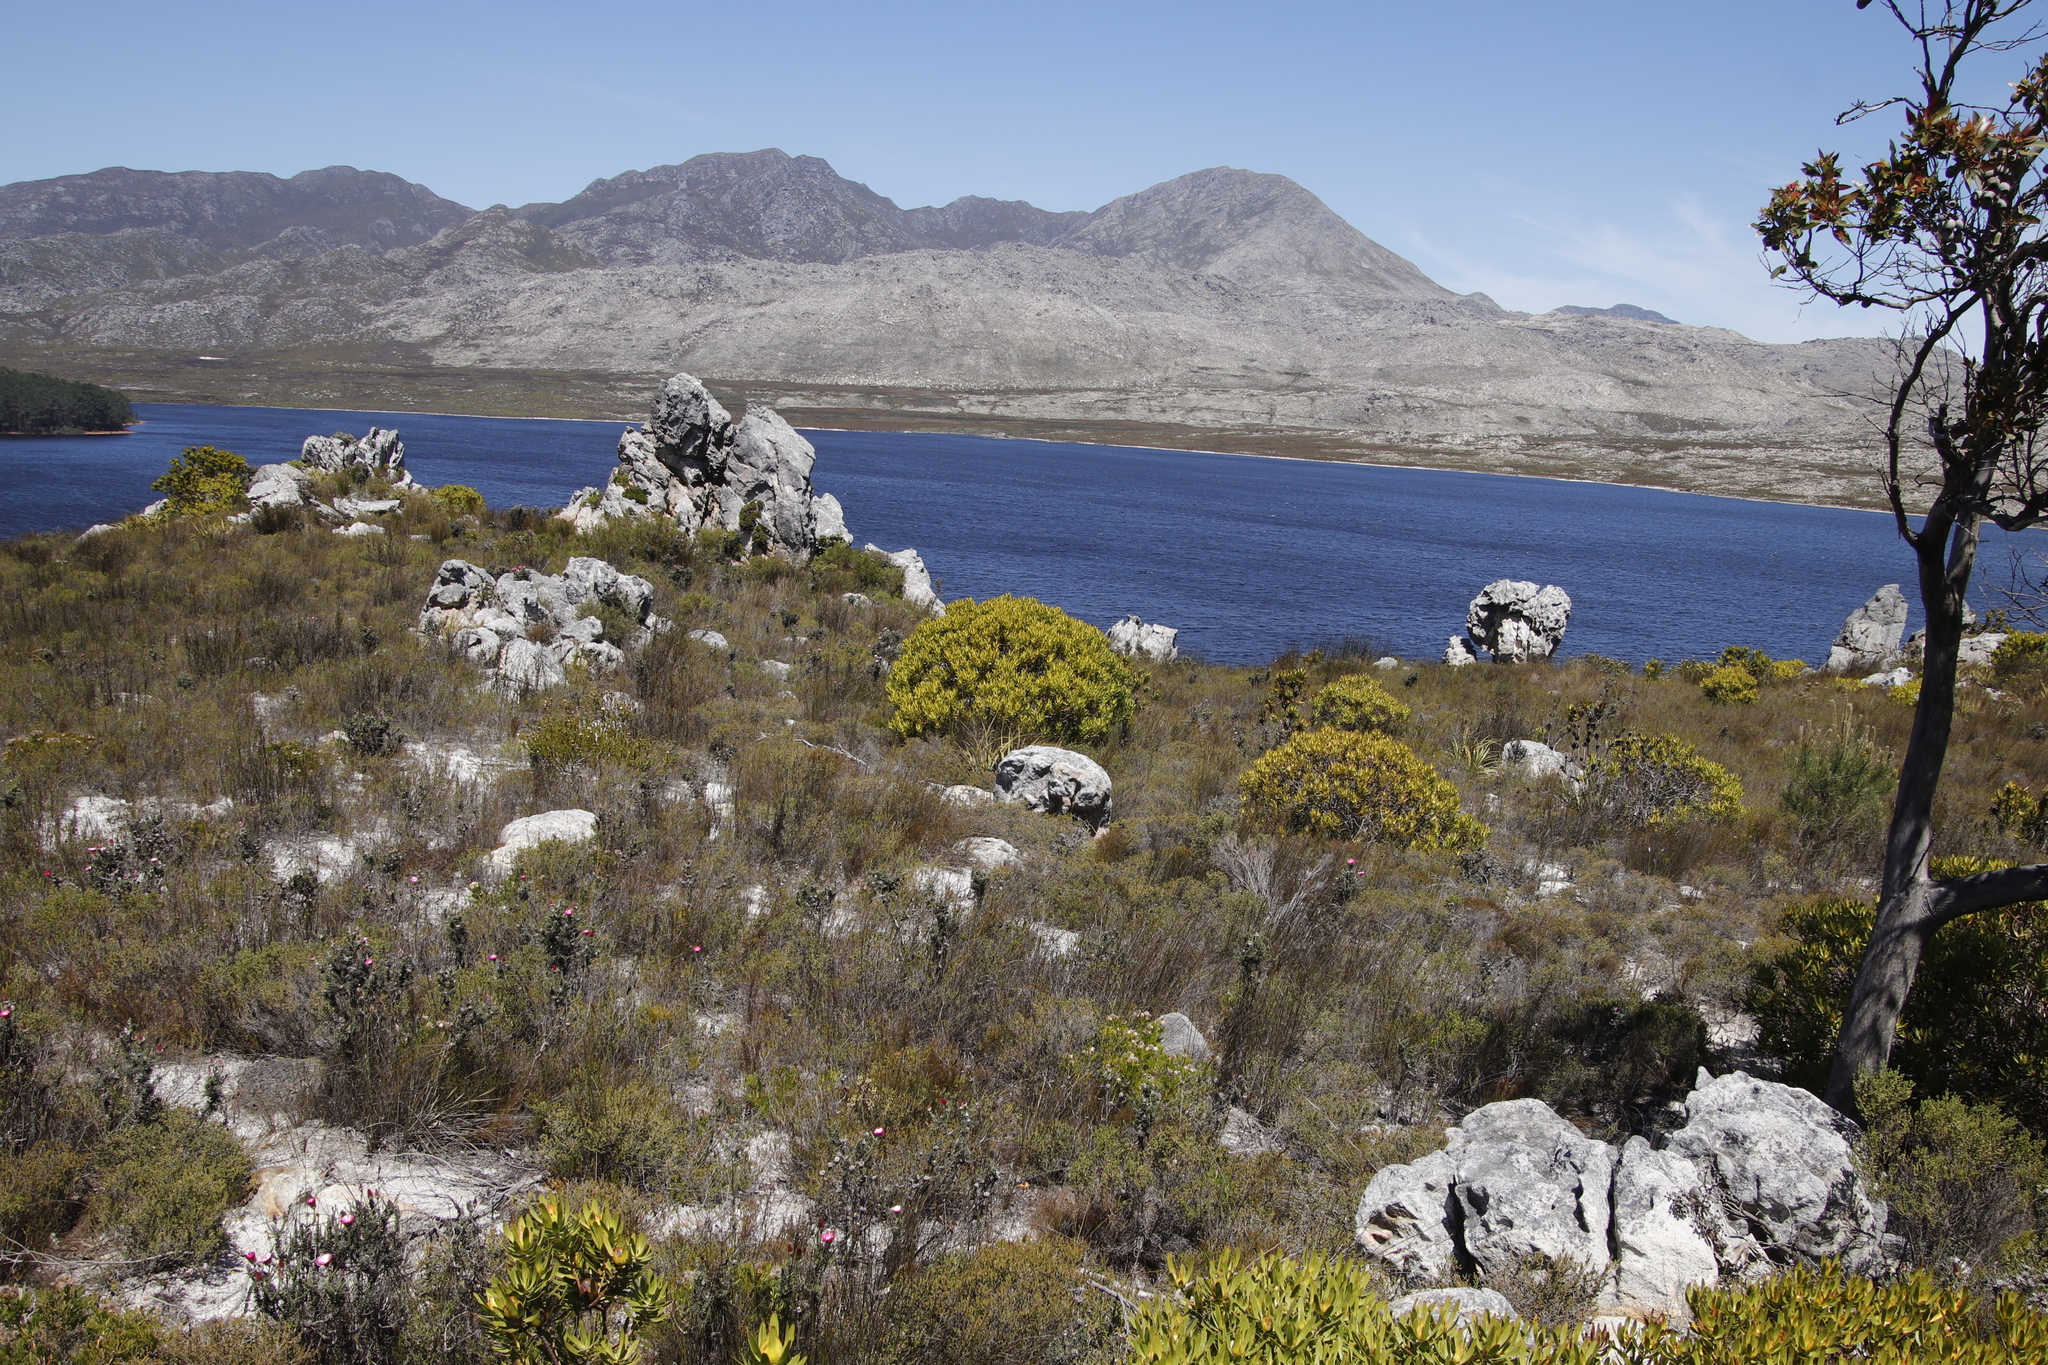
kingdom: Plantae
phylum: Tracheophyta
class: Magnoliopsida
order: Proteales
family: Proteaceae
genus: Leucadendron
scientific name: Leucadendron laureolum
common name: Golden sunshinebush
